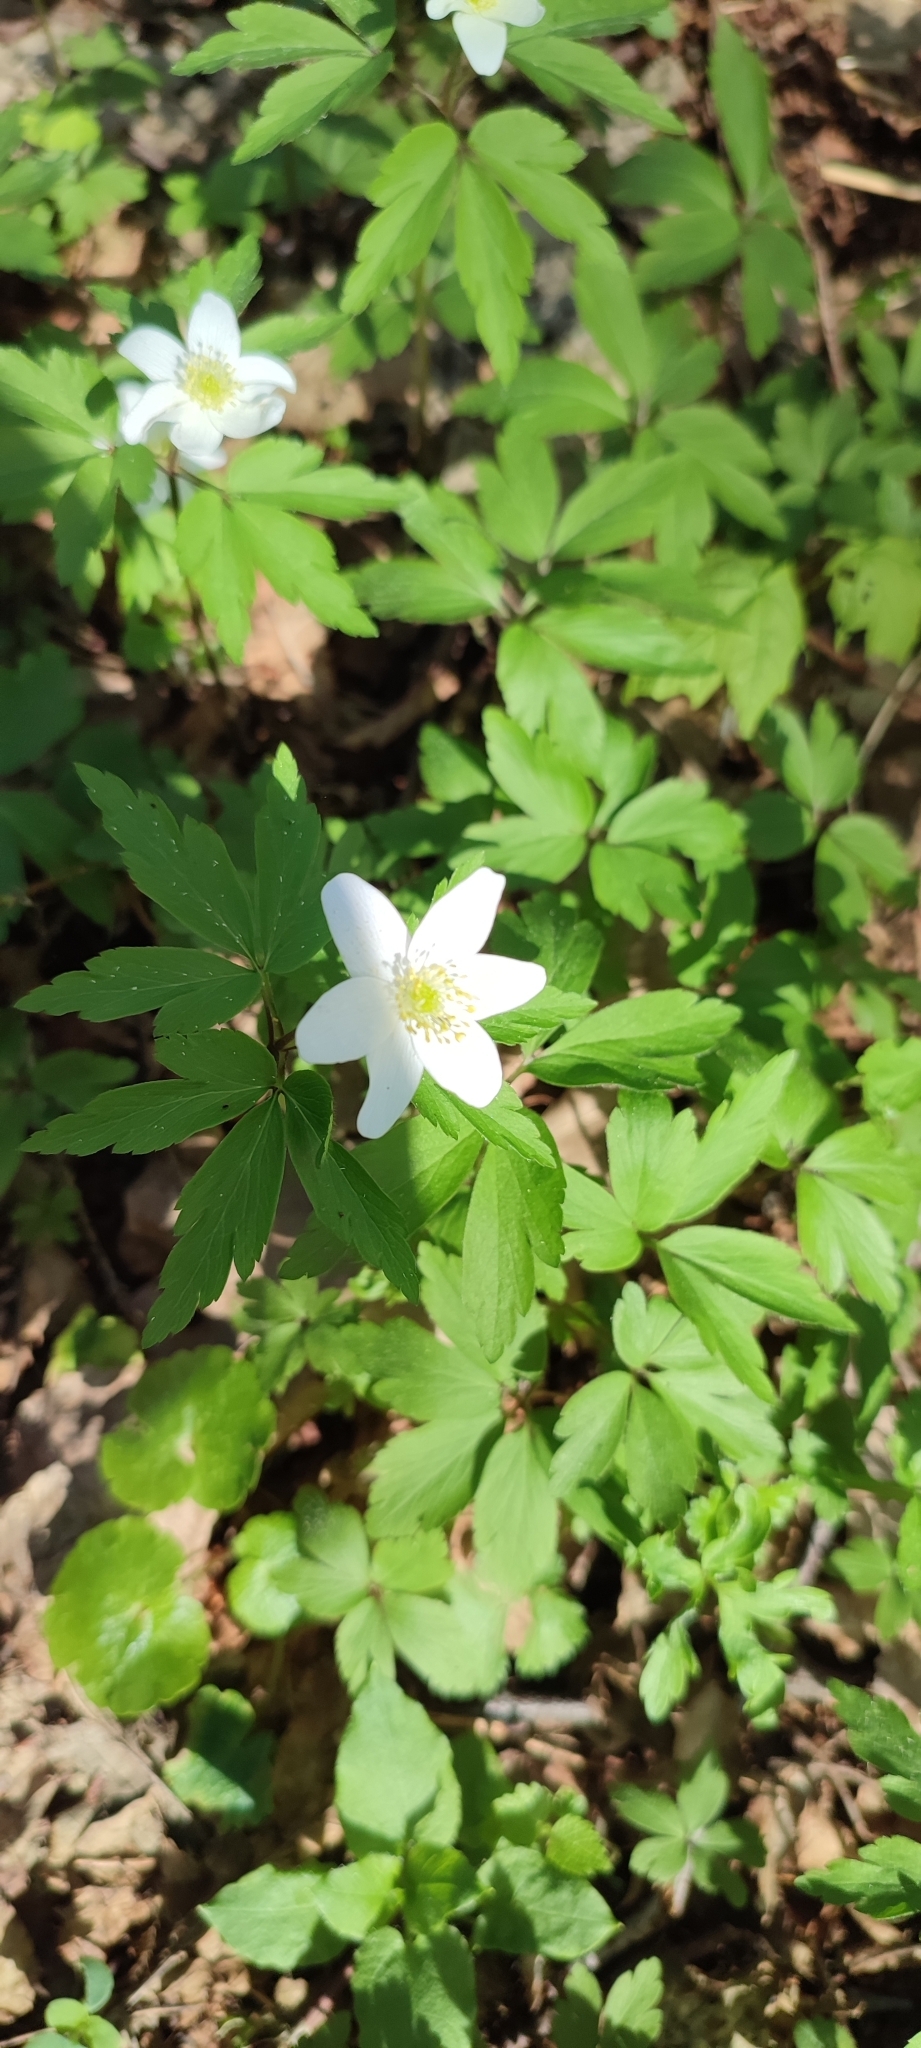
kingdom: Plantae
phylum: Tracheophyta
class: Magnoliopsida
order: Ranunculales
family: Ranunculaceae
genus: Anemone
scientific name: Anemone nemorosa
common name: Wood anemone
